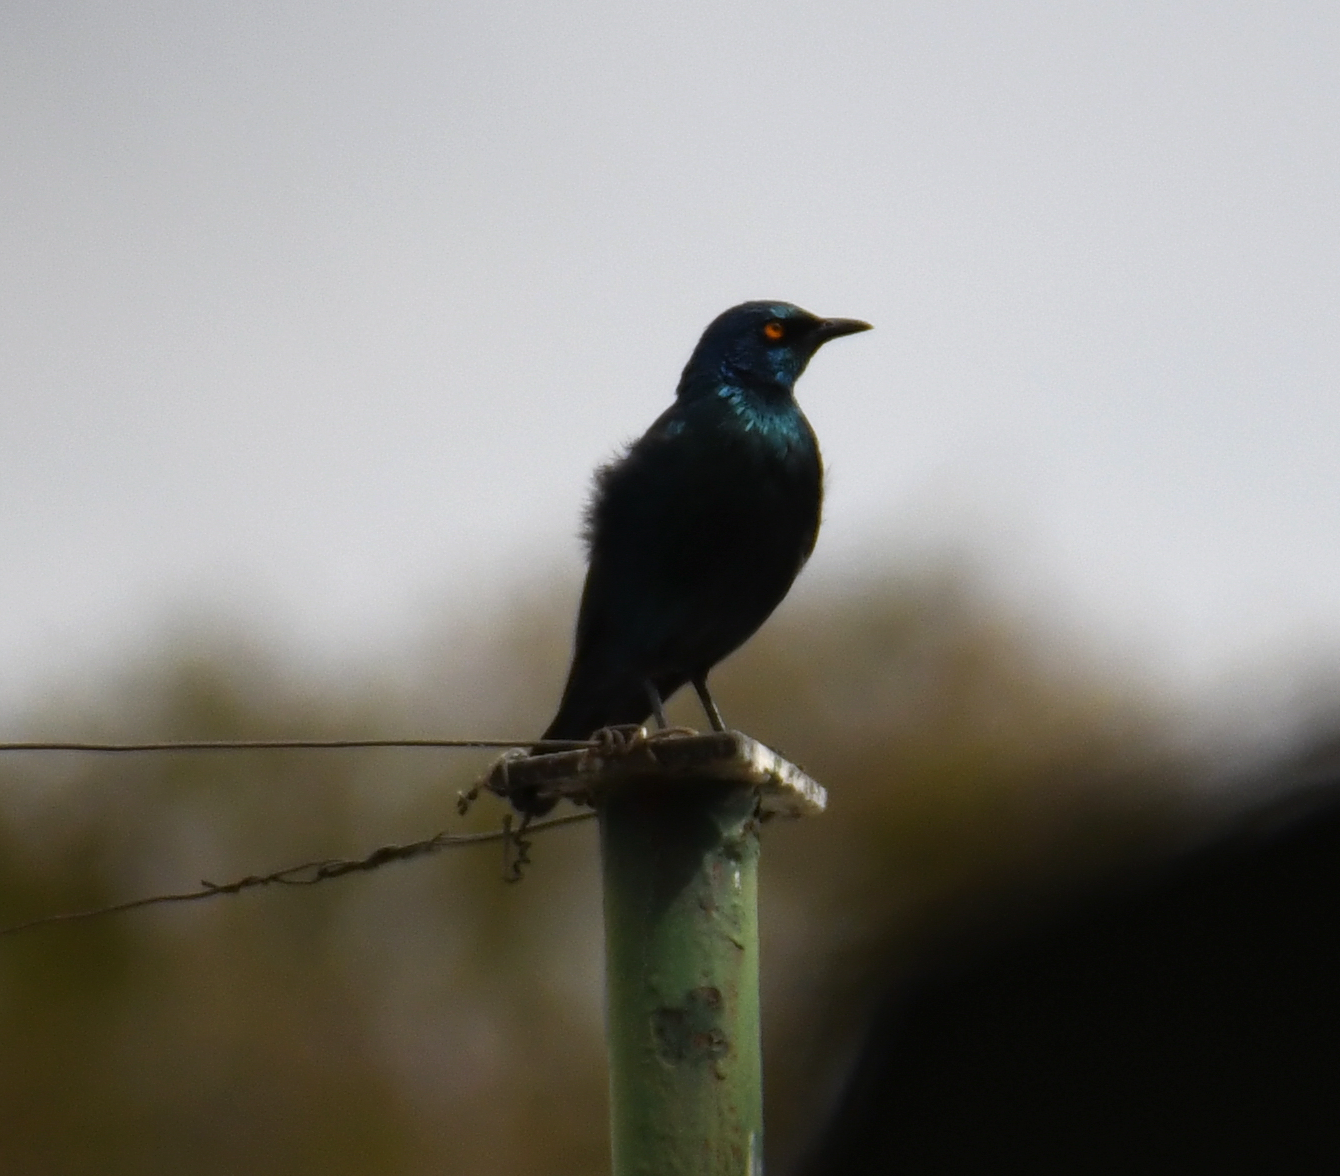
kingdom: Animalia
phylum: Chordata
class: Aves
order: Passeriformes
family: Sturnidae
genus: Lamprotornis
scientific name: Lamprotornis nitens
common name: Cape starling
